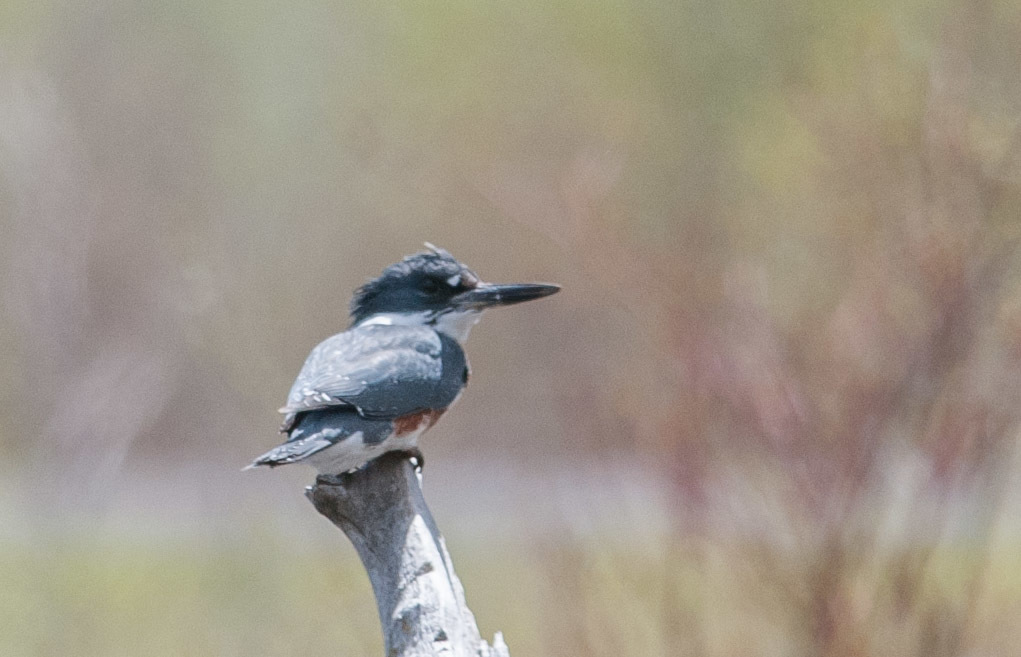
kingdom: Animalia
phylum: Chordata
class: Aves
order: Coraciiformes
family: Alcedinidae
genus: Megaceryle
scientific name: Megaceryle alcyon
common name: Belted kingfisher
